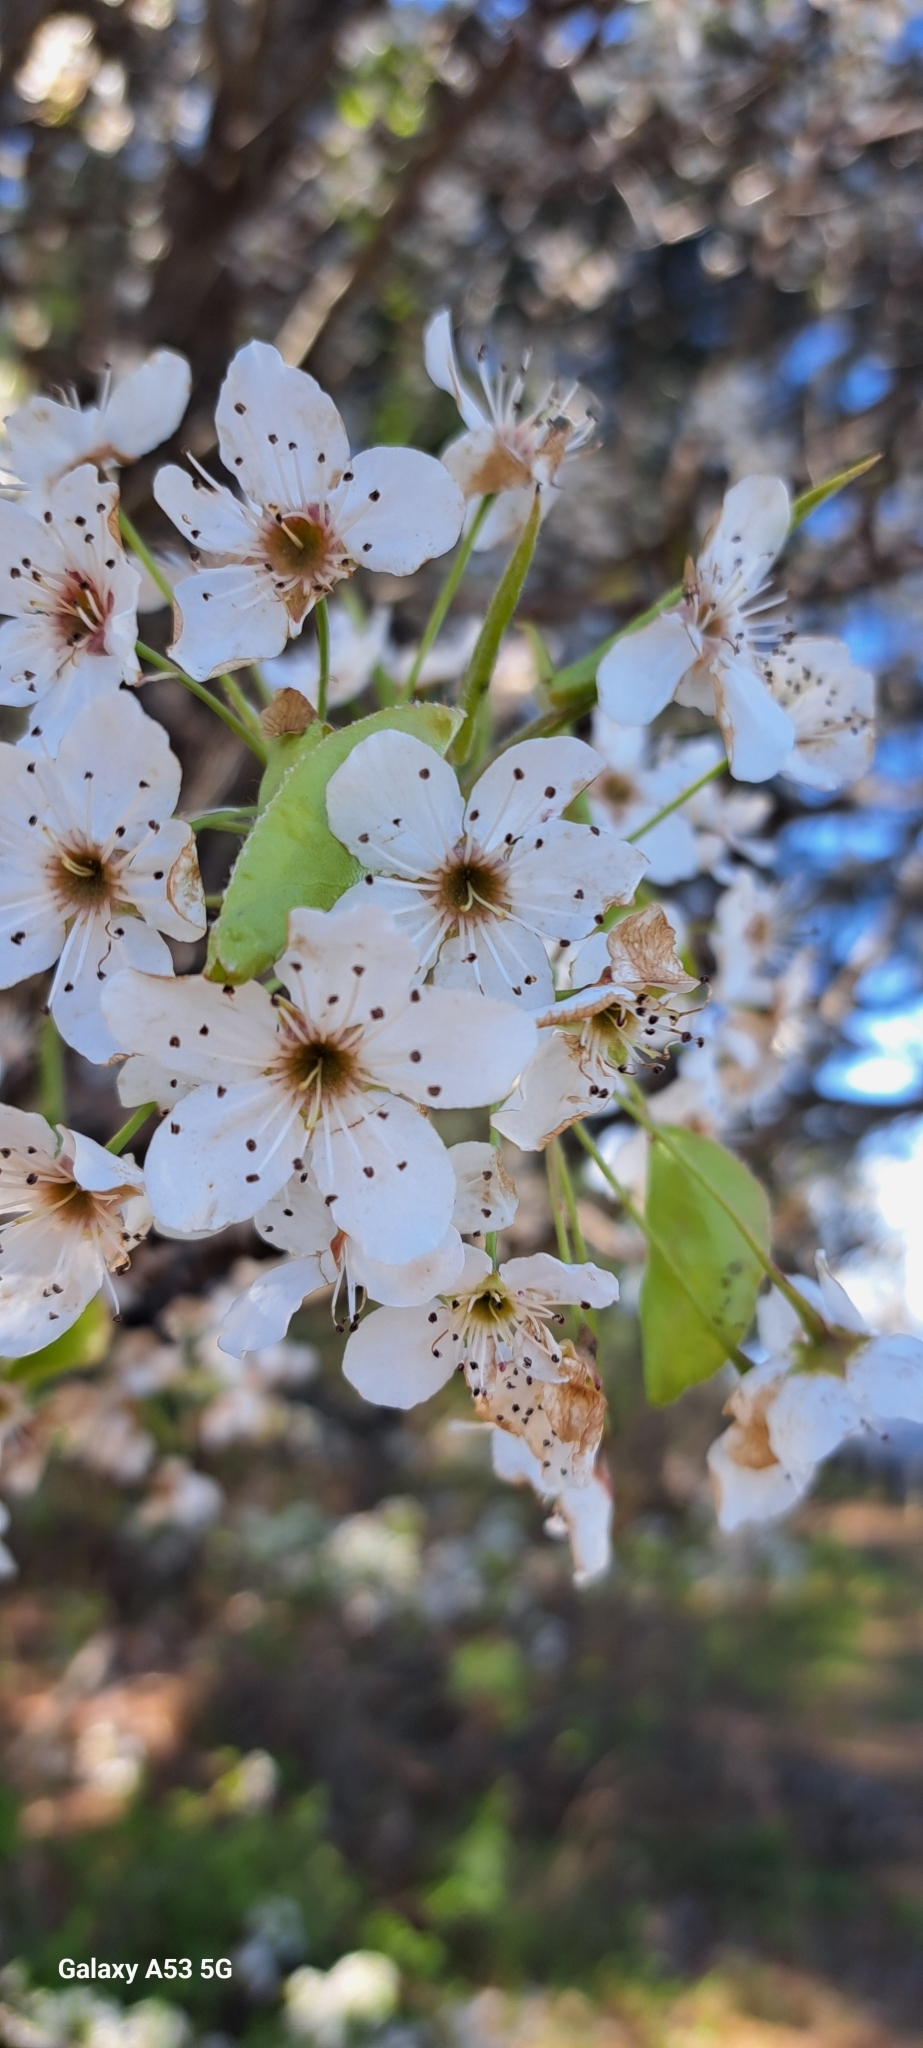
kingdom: Plantae
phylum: Tracheophyta
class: Magnoliopsida
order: Rosales
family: Rosaceae
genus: Pyrus
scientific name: Pyrus calleryana
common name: Callery pear
